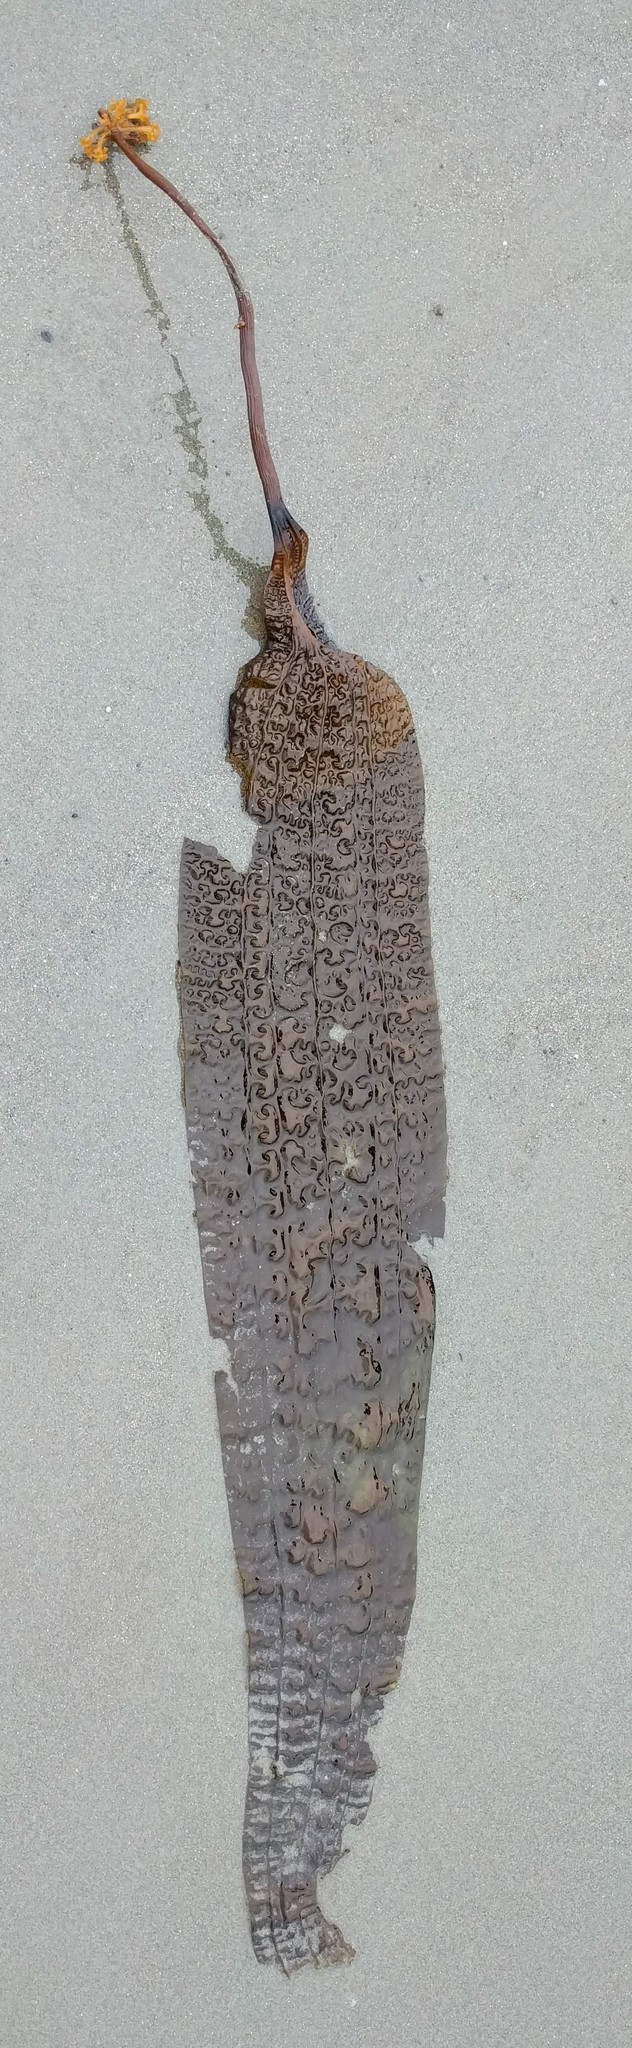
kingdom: Chromista
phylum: Ochrophyta
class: Phaeophyceae
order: Laminariales
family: Costariaceae
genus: Costaria
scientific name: Costaria costata
